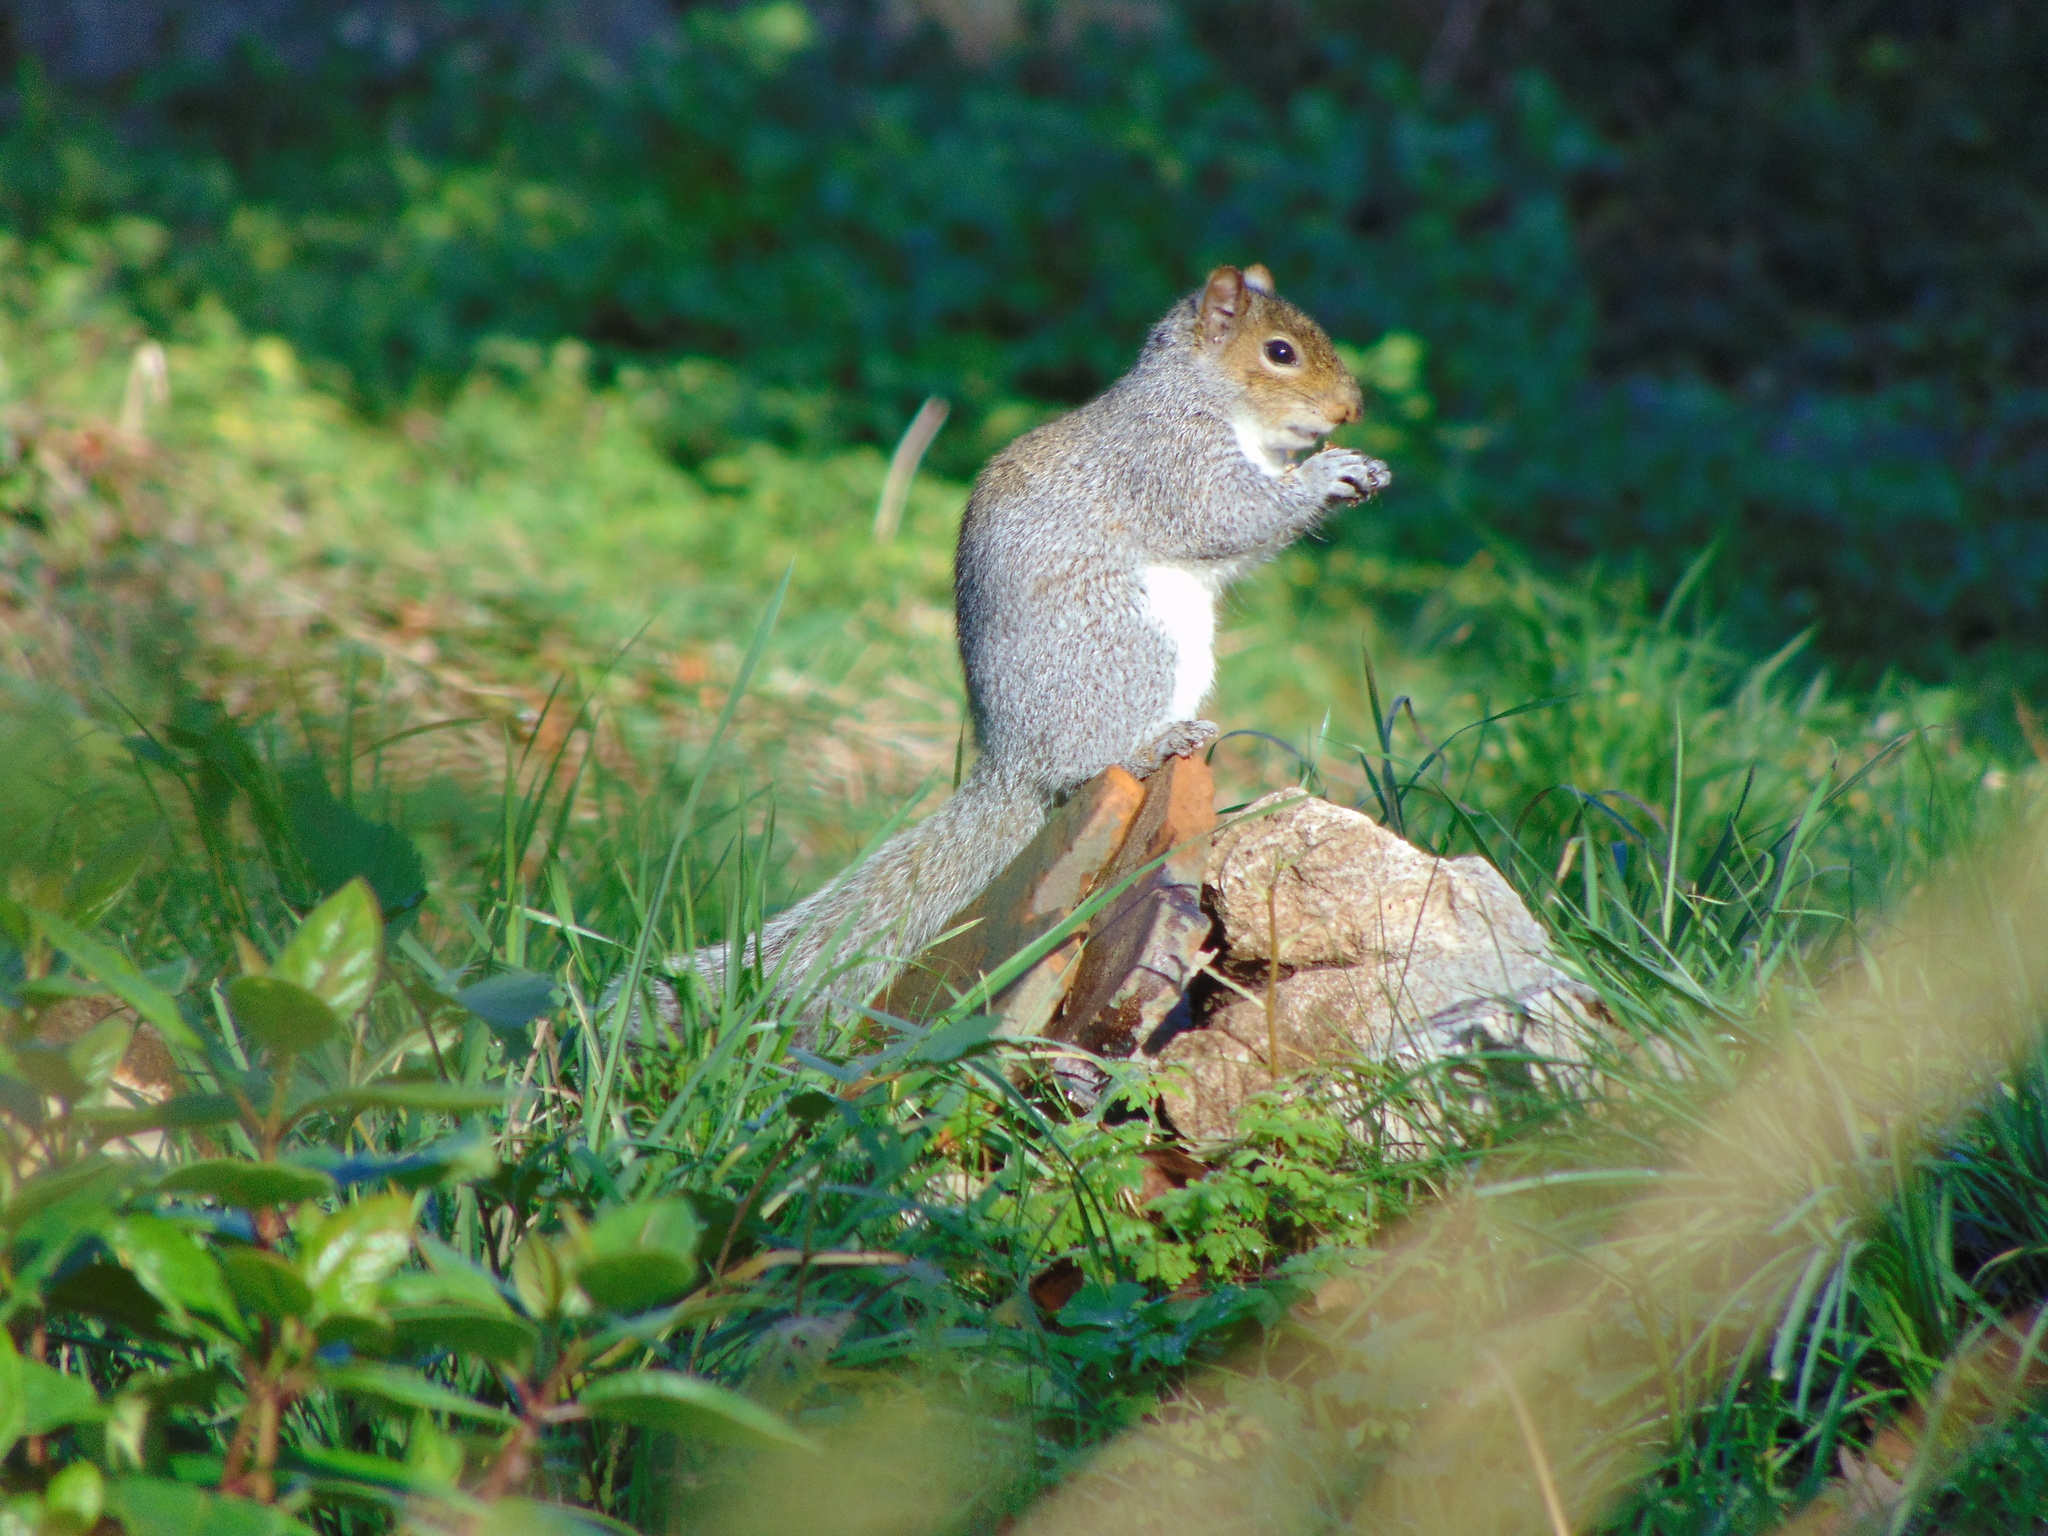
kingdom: Animalia
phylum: Chordata
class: Mammalia
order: Rodentia
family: Sciuridae
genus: Sciurus
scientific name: Sciurus carolinensis
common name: Eastern gray squirrel
